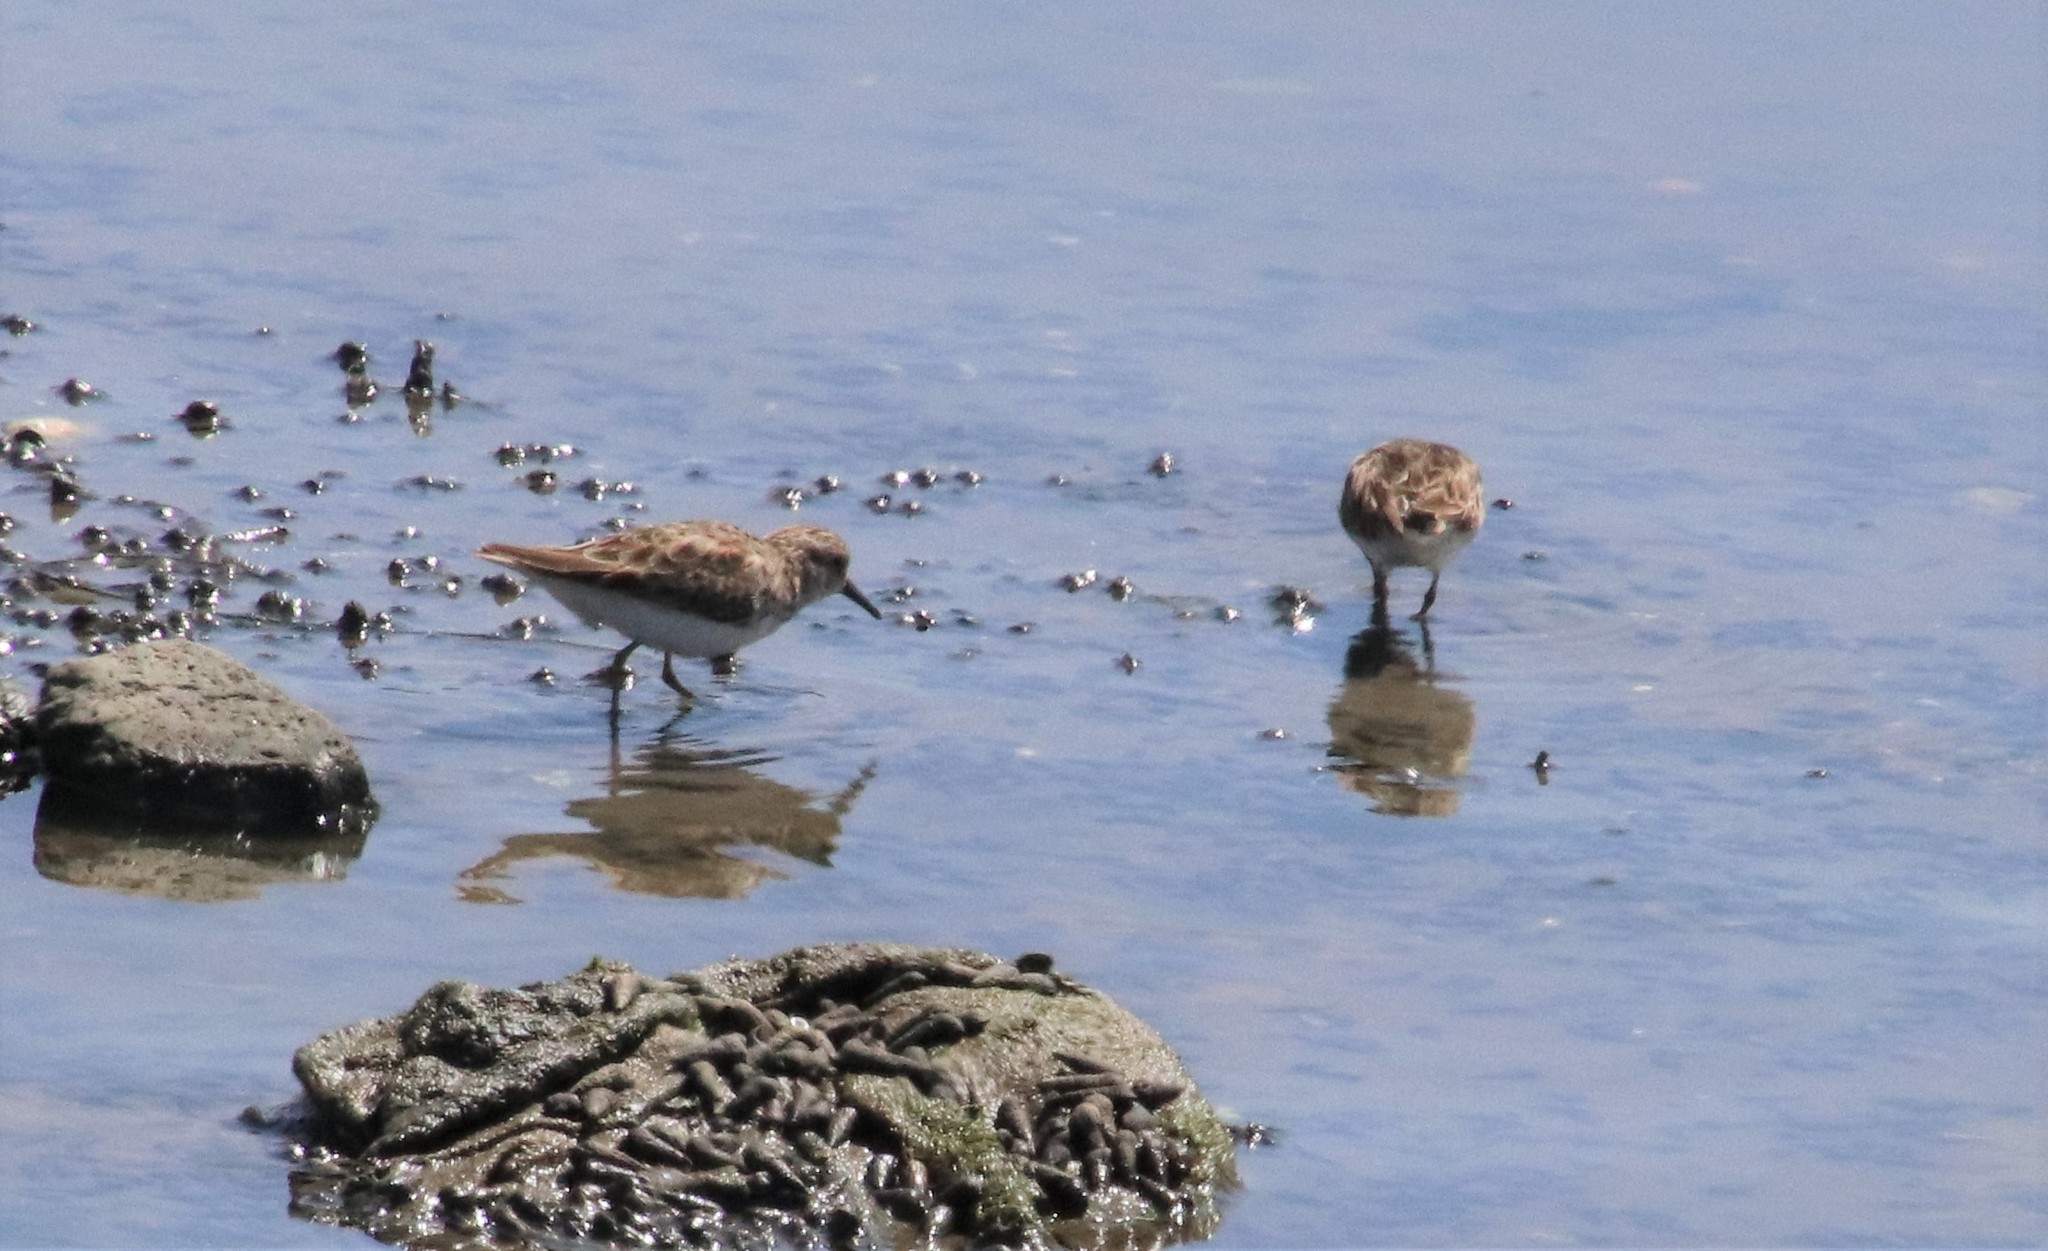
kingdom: Animalia
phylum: Chordata
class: Aves
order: Charadriiformes
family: Scolopacidae
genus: Calidris
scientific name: Calidris minutilla
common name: Least sandpiper
